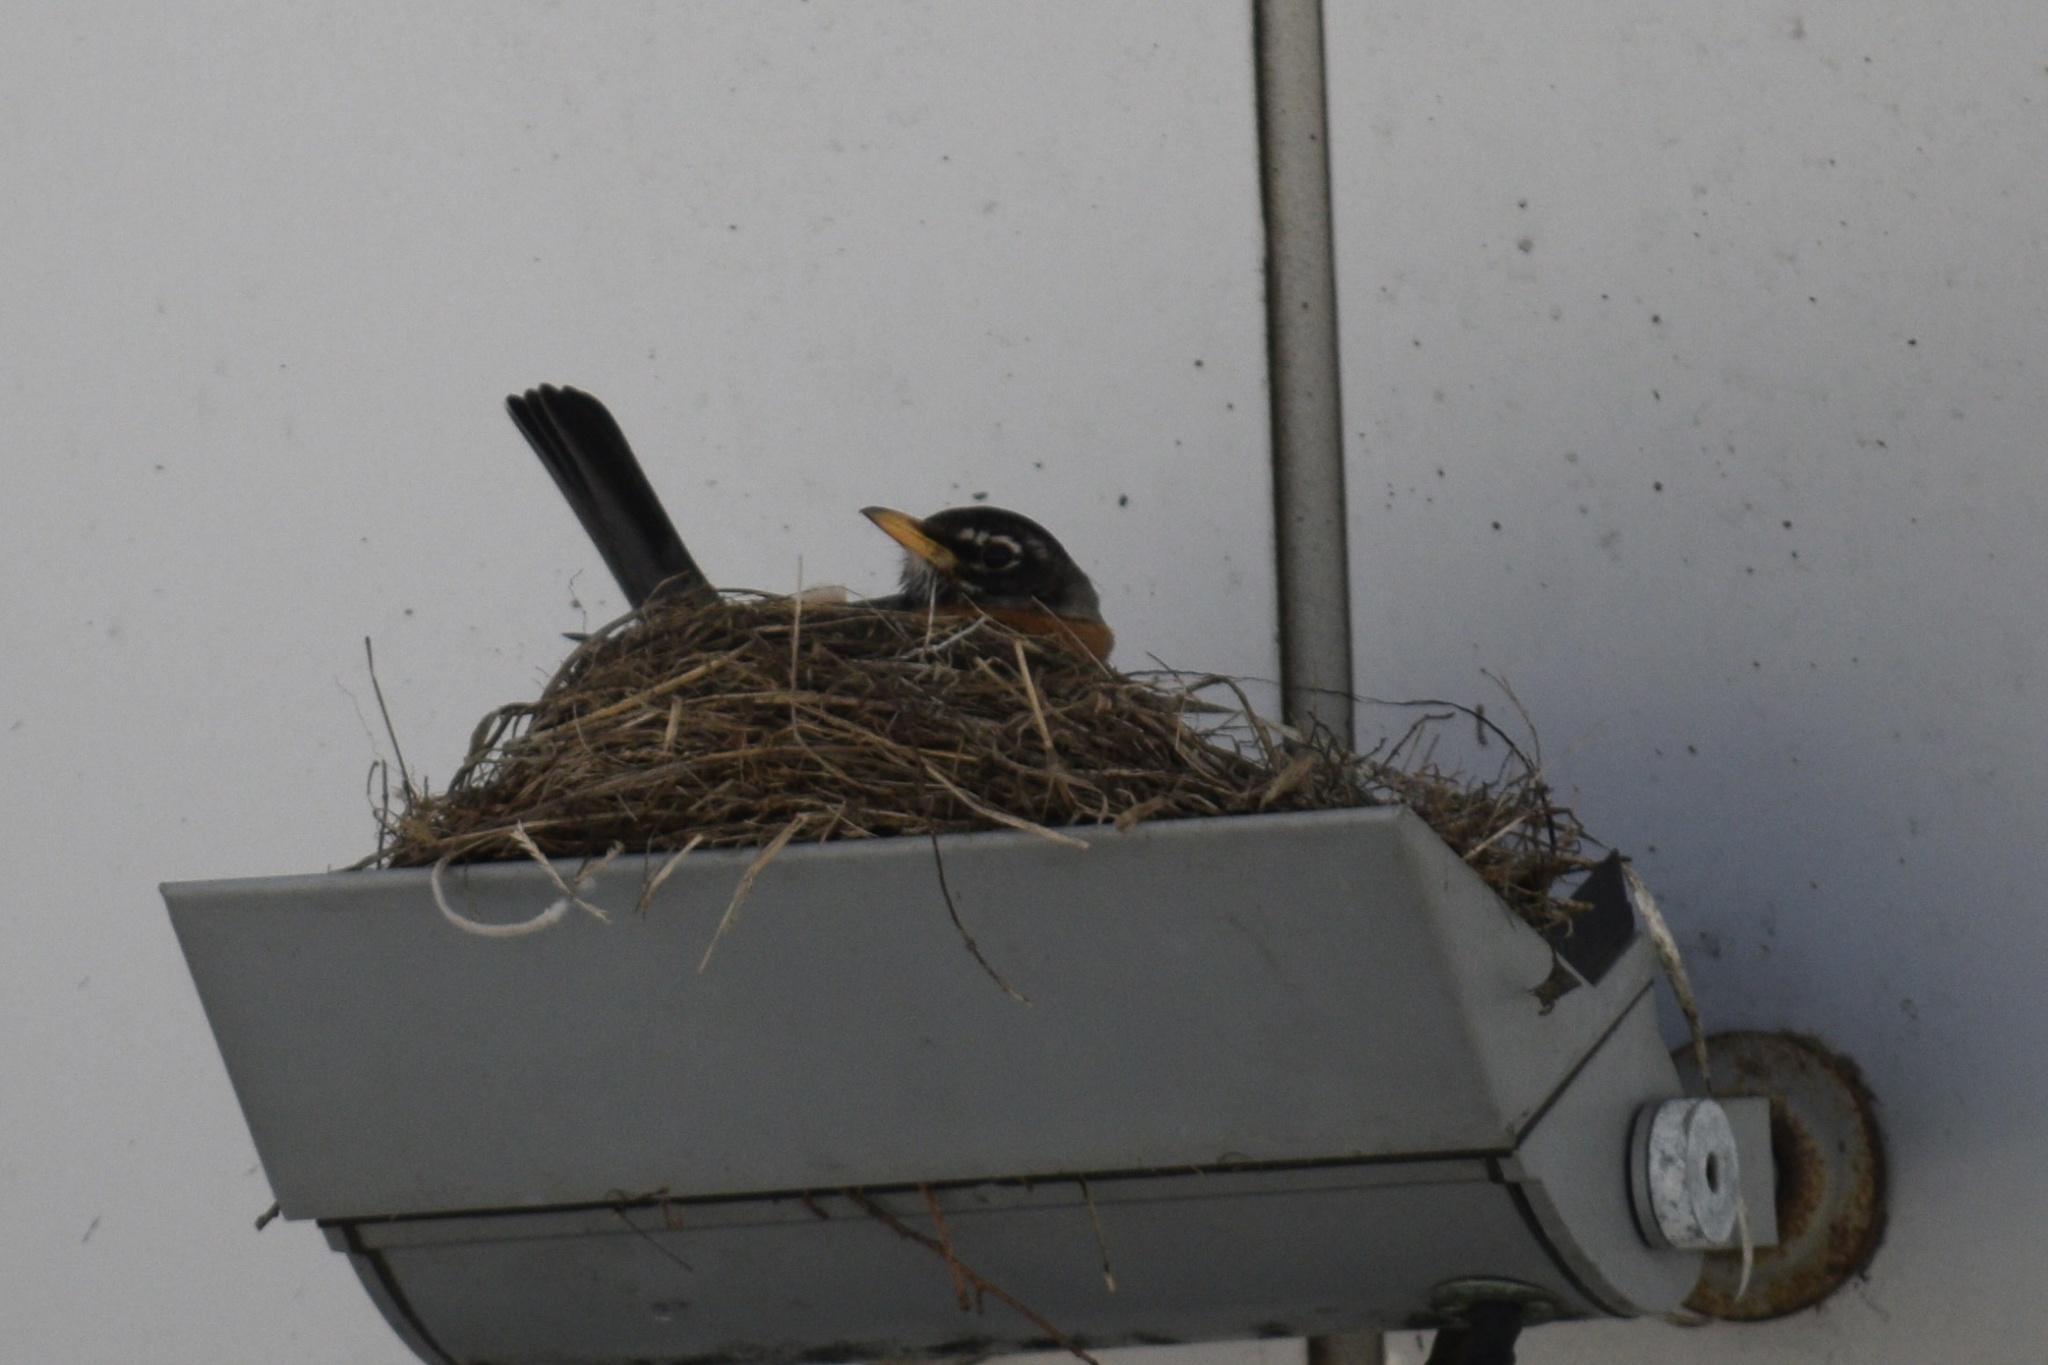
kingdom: Animalia
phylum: Chordata
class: Aves
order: Passeriformes
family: Turdidae
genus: Turdus
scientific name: Turdus migratorius
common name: American robin
